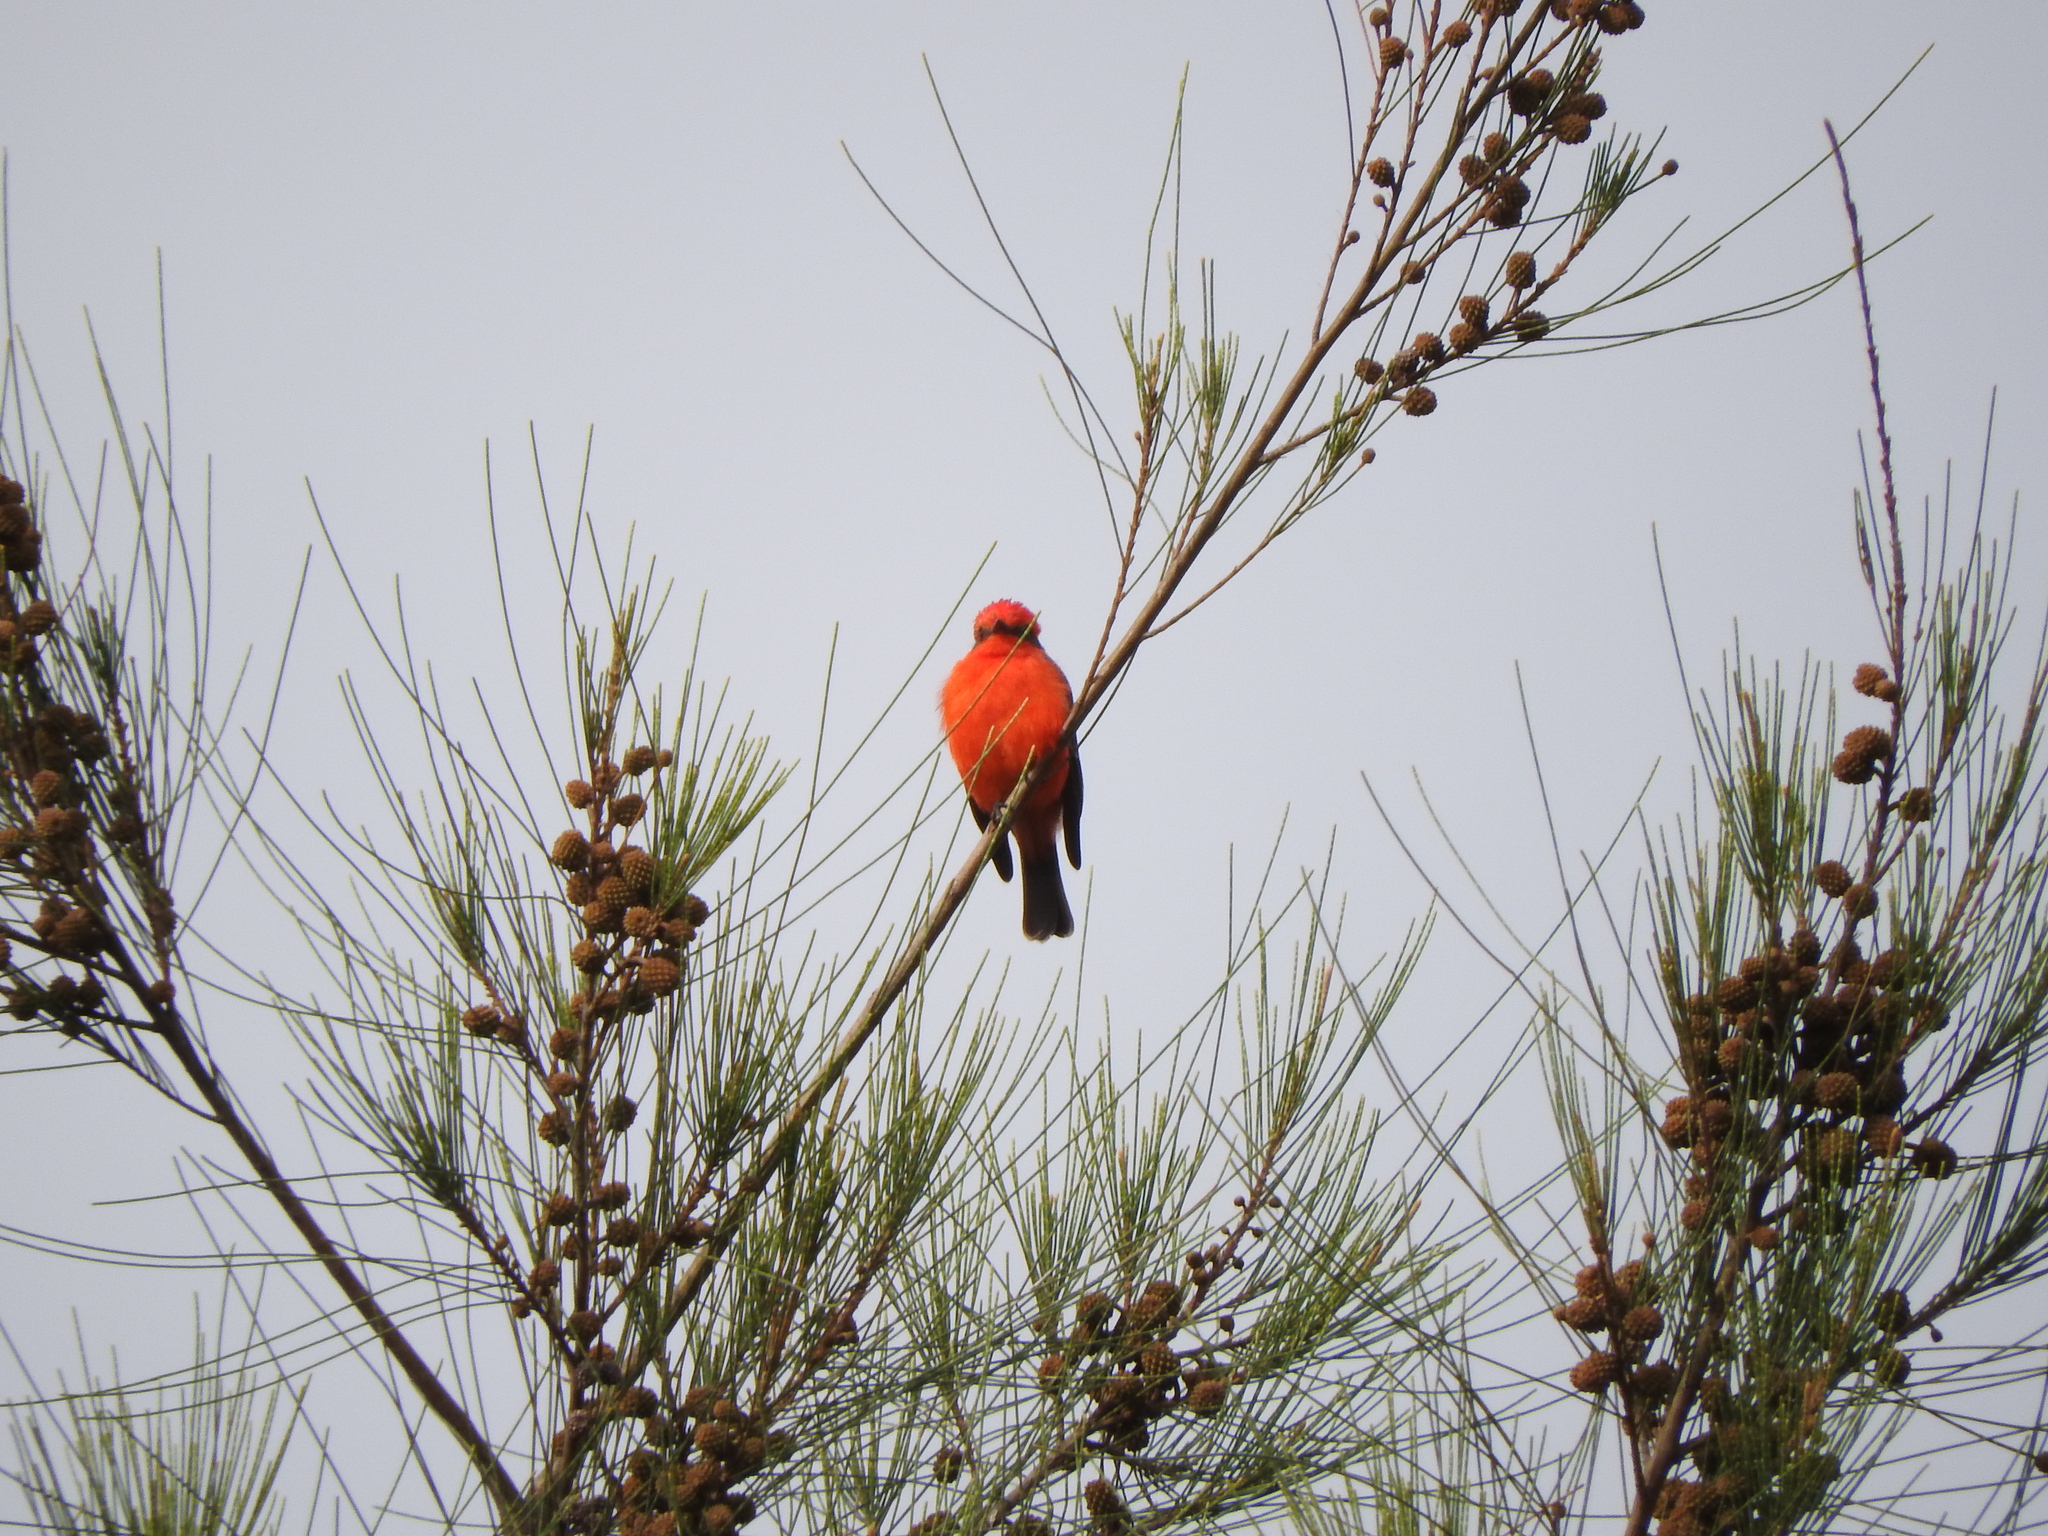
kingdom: Animalia
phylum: Chordata
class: Aves
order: Passeriformes
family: Tyrannidae
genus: Pyrocephalus
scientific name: Pyrocephalus rubinus
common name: Vermilion flycatcher
